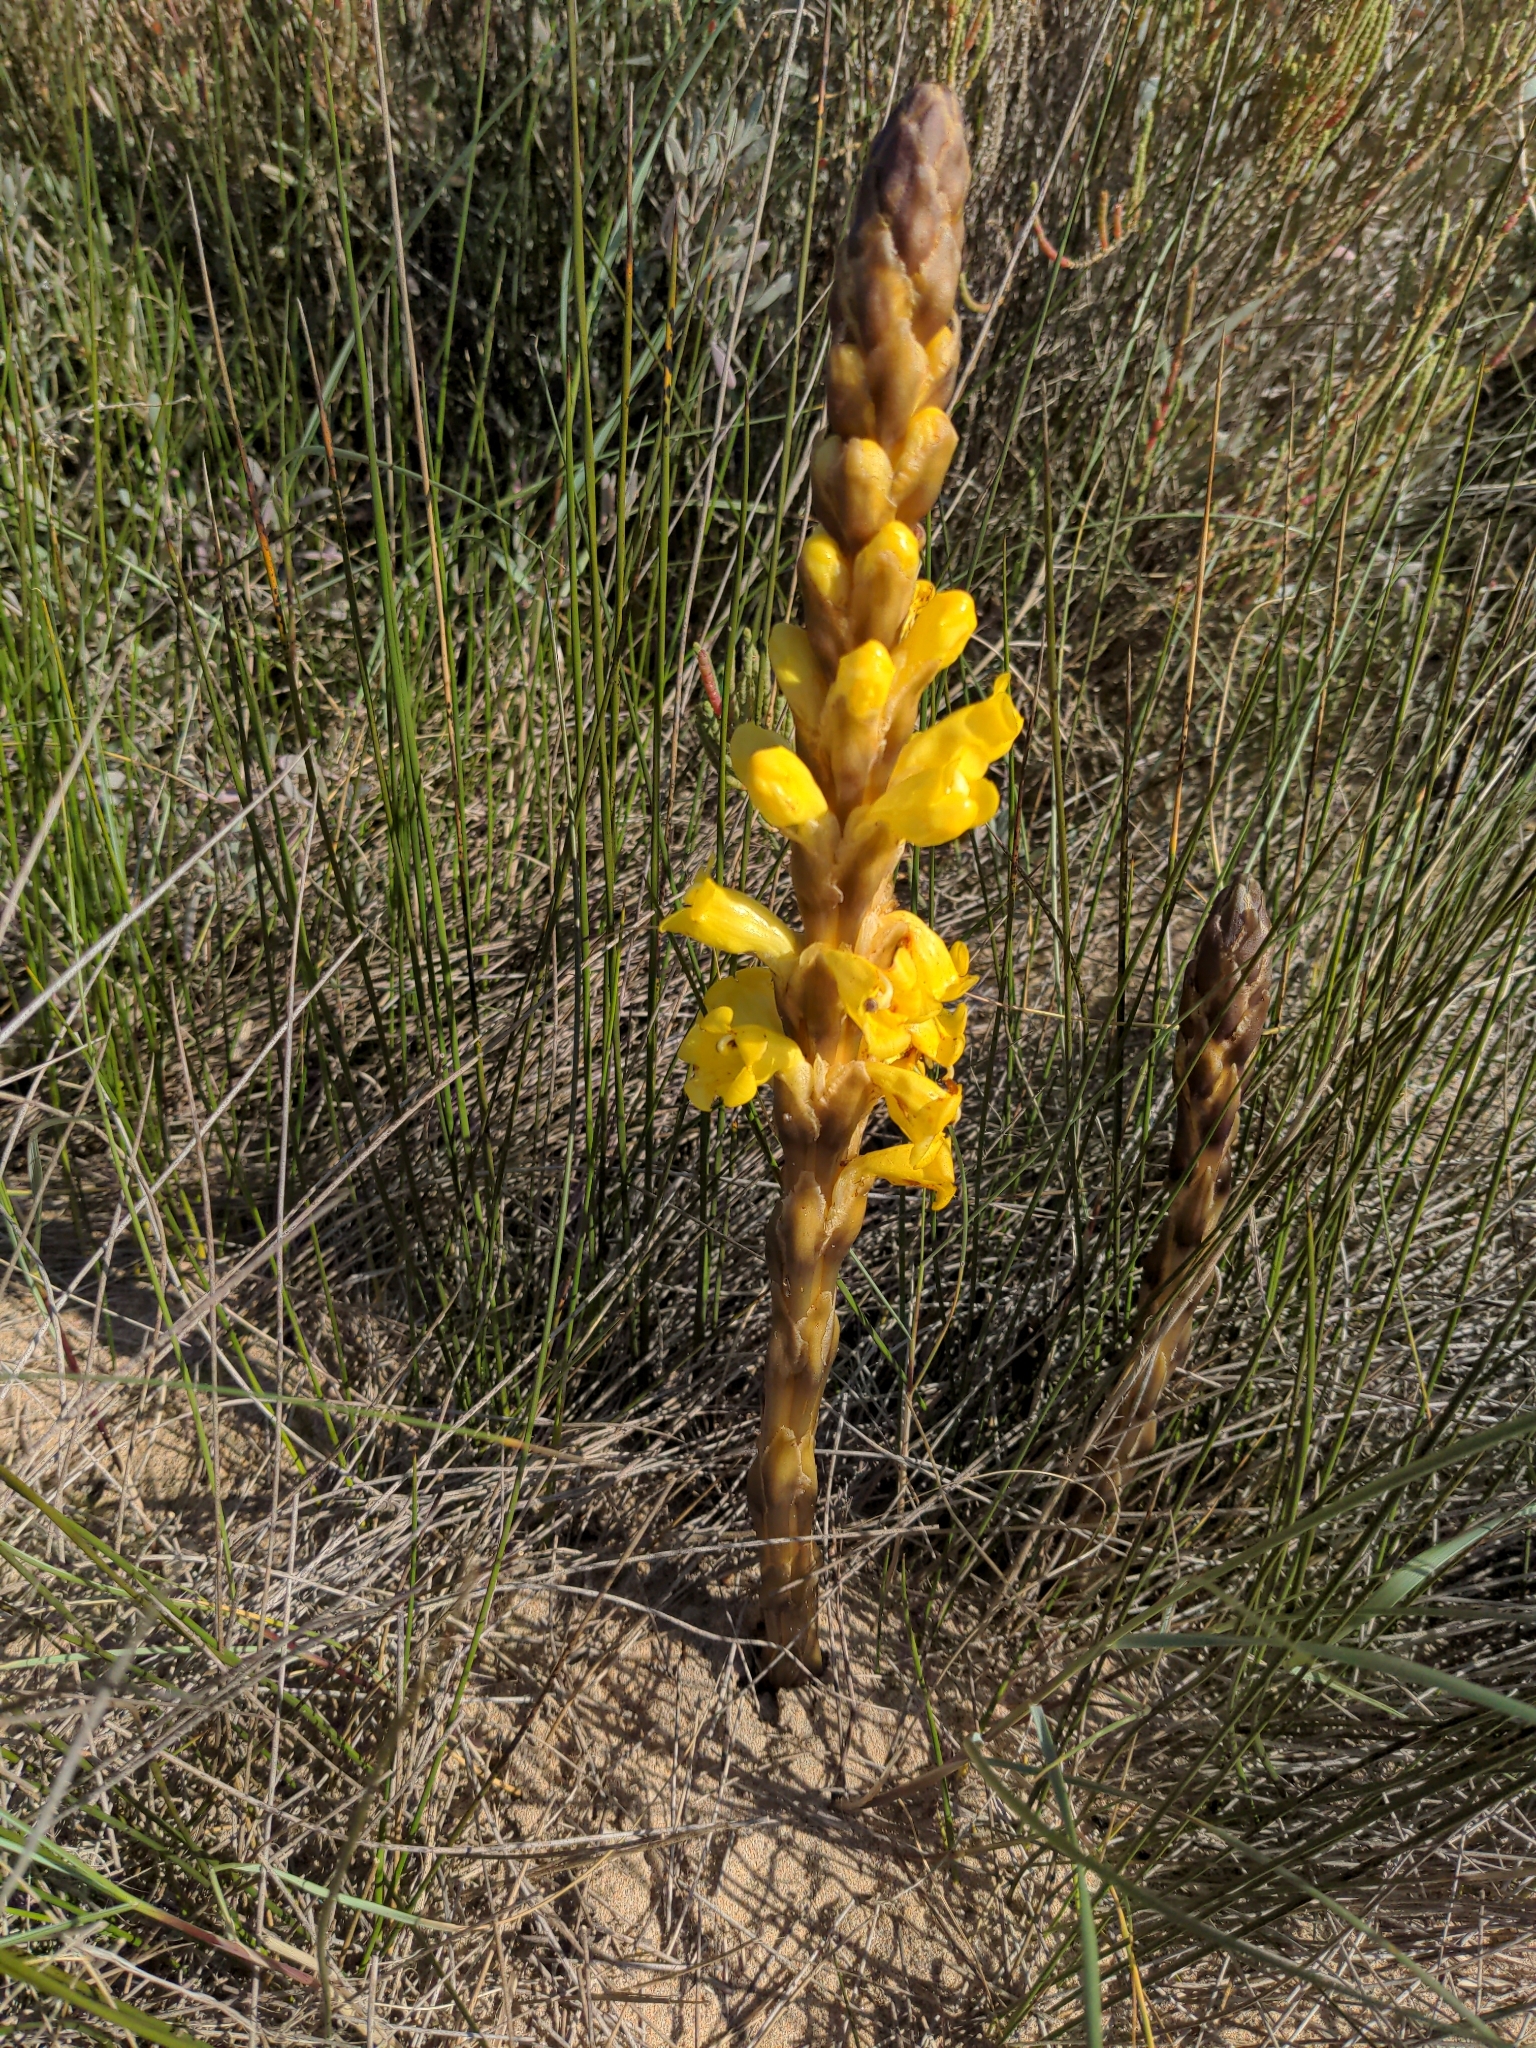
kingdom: Plantae
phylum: Tracheophyta
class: Magnoliopsida
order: Lamiales
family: Orobanchaceae
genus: Cistanche
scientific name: Cistanche phelypaea
